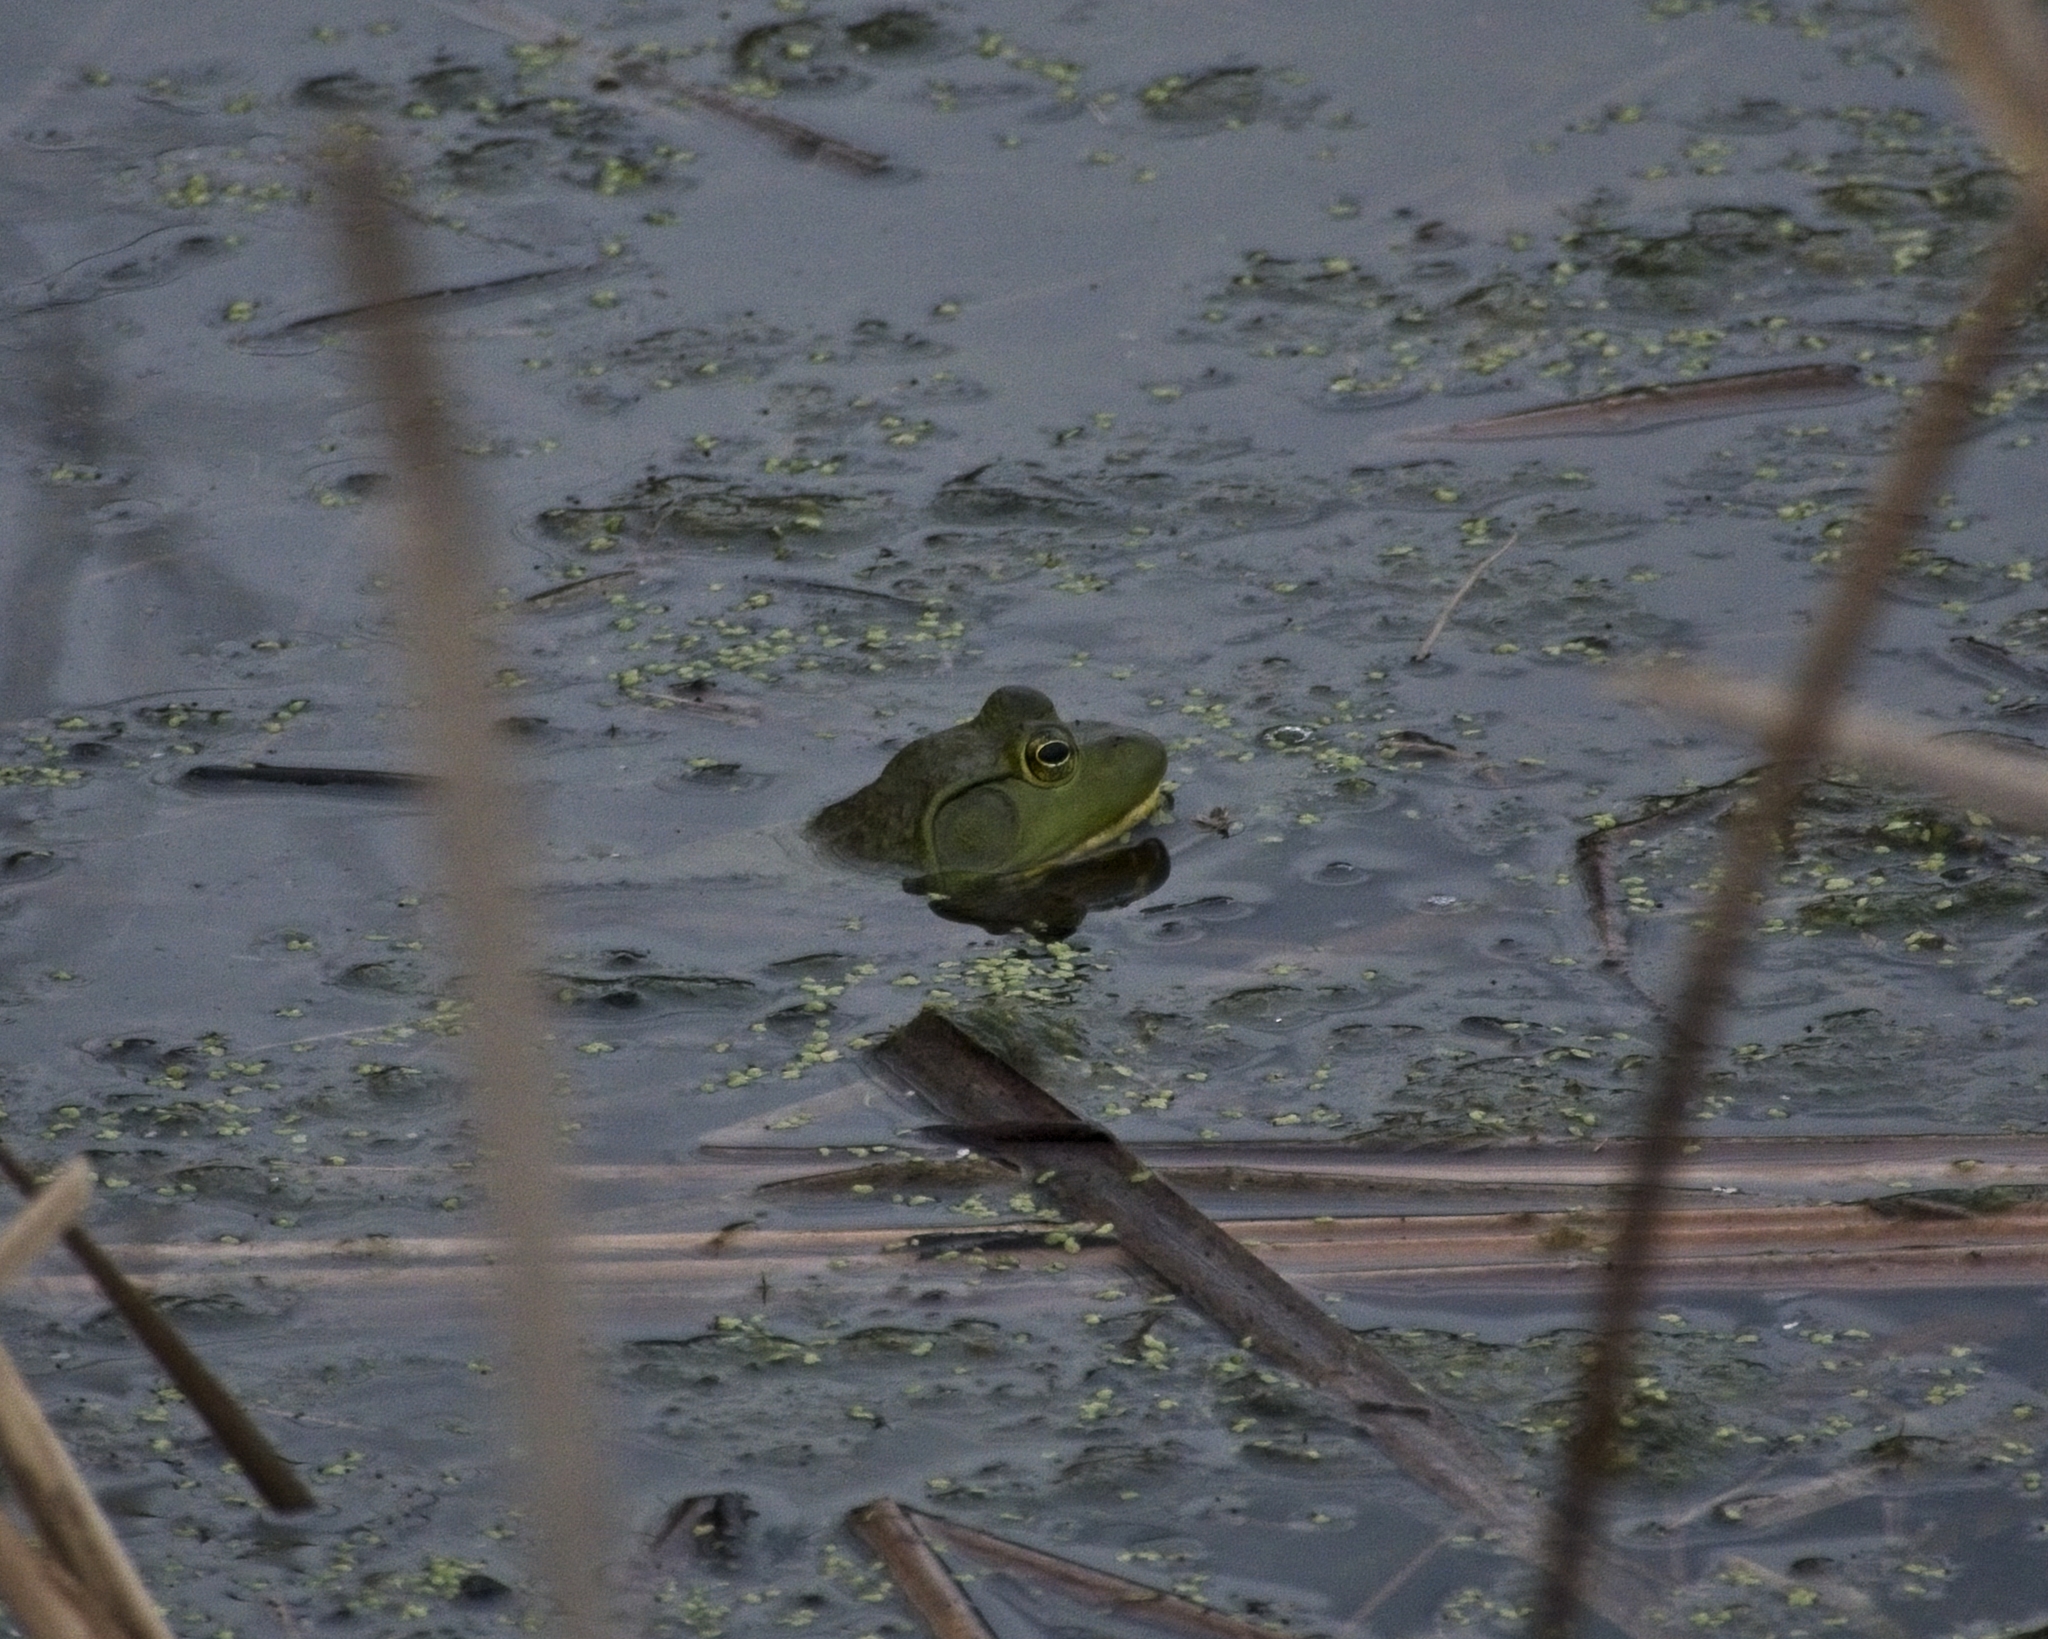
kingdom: Animalia
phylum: Chordata
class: Amphibia
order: Anura
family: Ranidae
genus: Lithobates
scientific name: Lithobates catesbeianus
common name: American bullfrog
